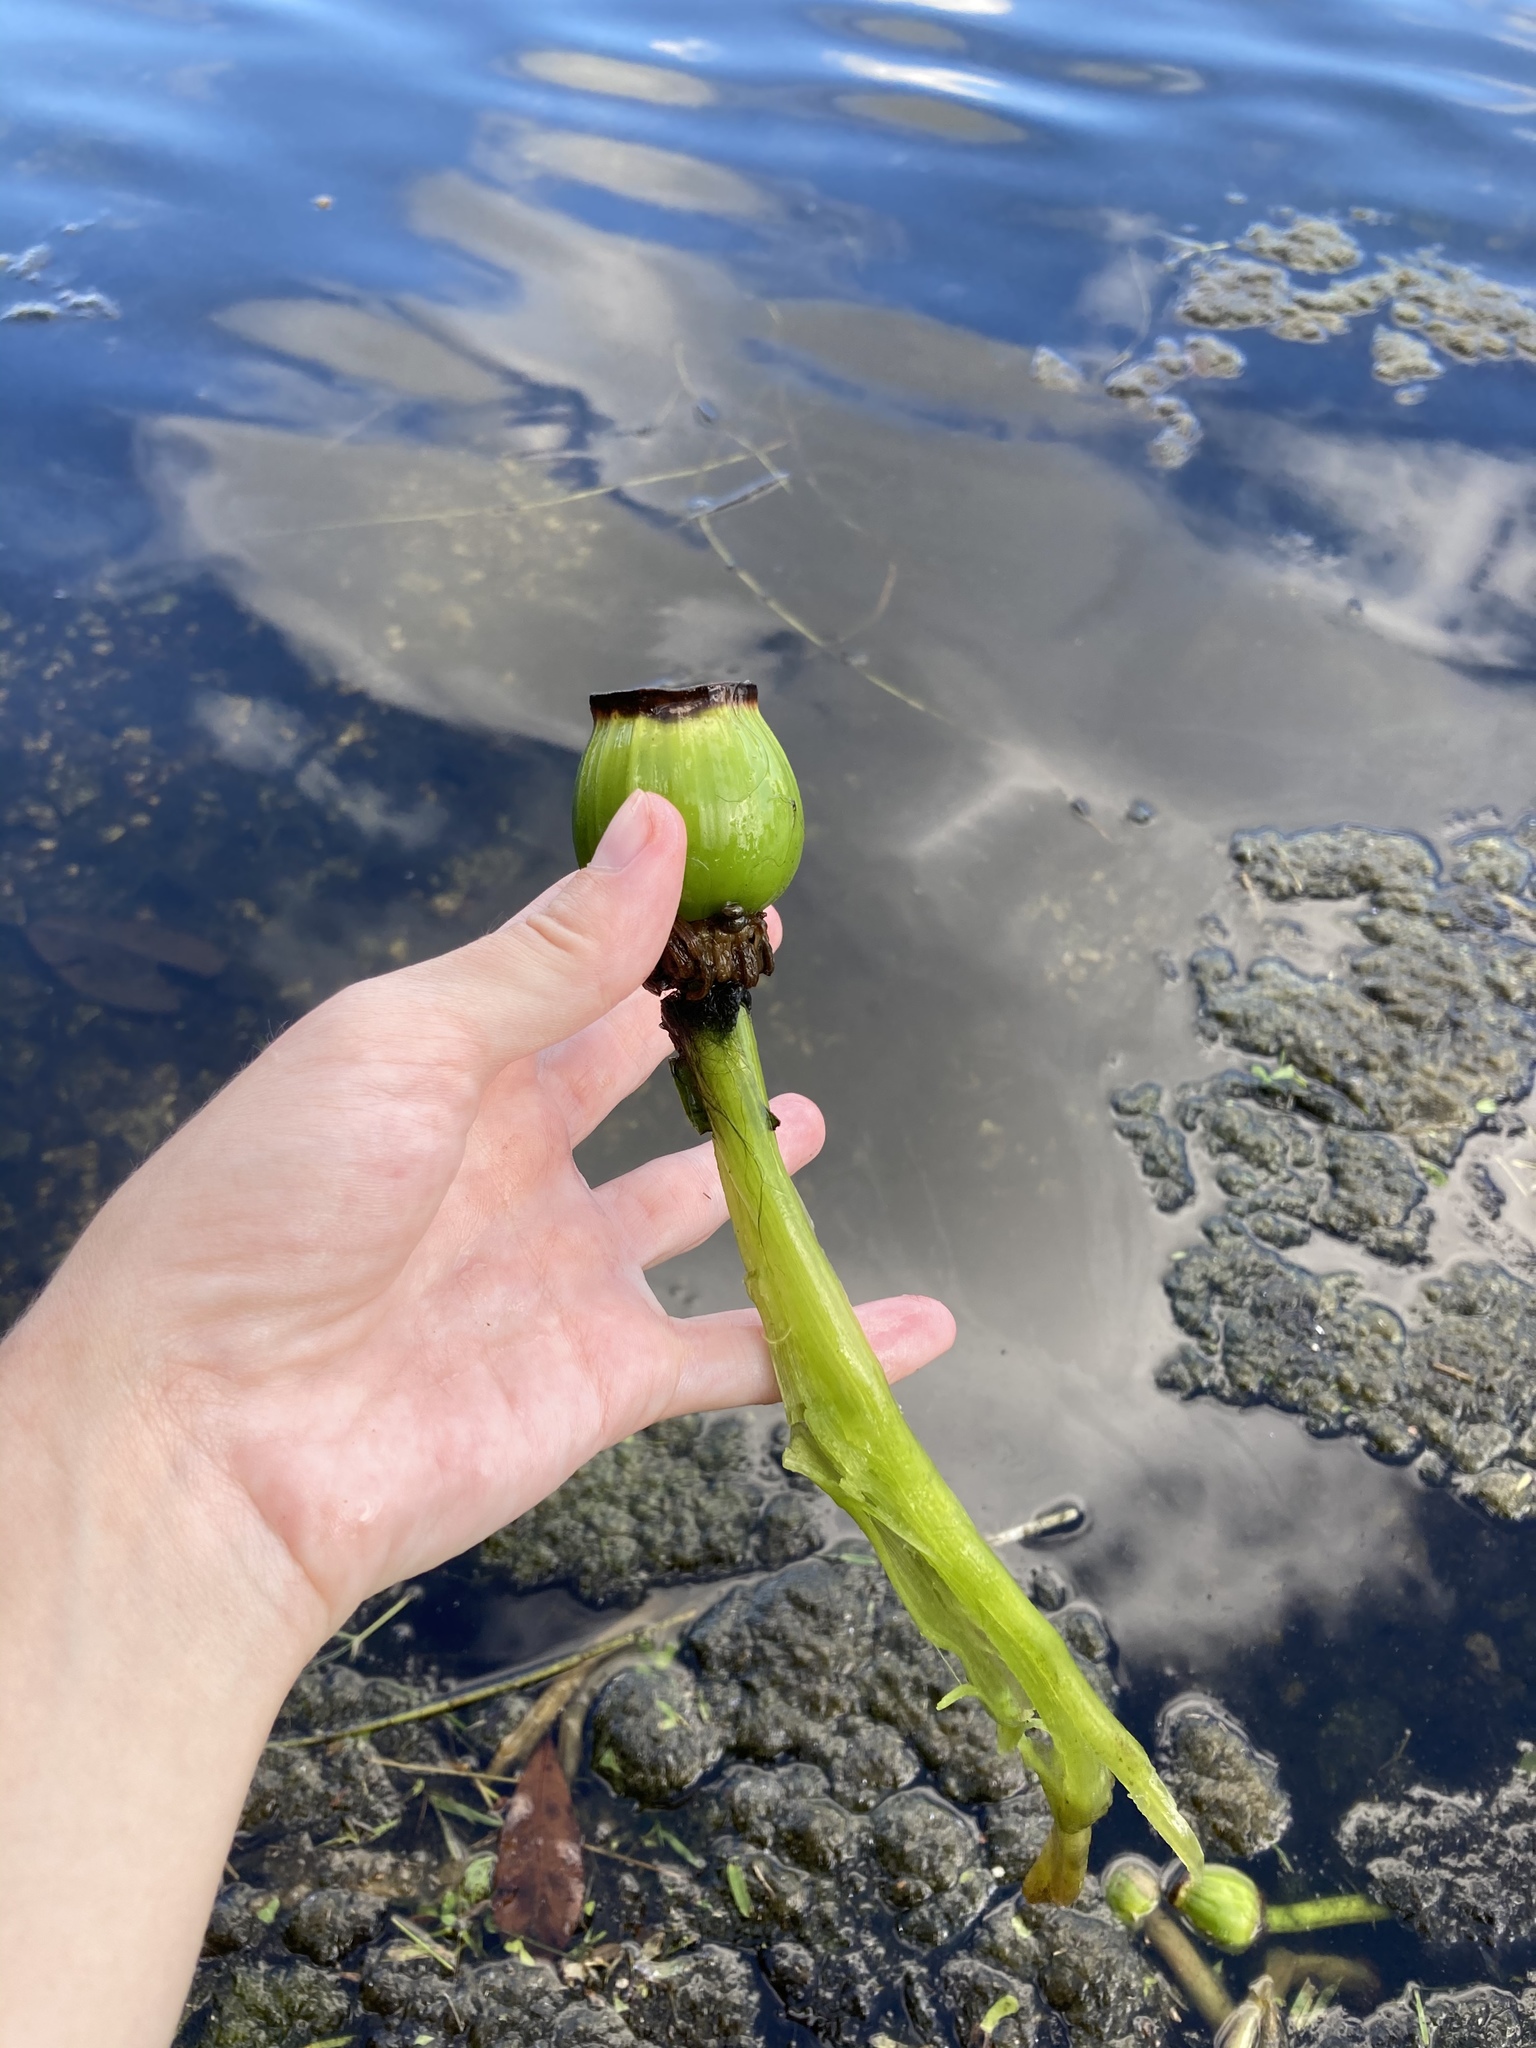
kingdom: Plantae
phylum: Tracheophyta
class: Magnoliopsida
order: Nymphaeales
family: Nymphaeaceae
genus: Nuphar
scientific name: Nuphar advena
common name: Spatter-dock
